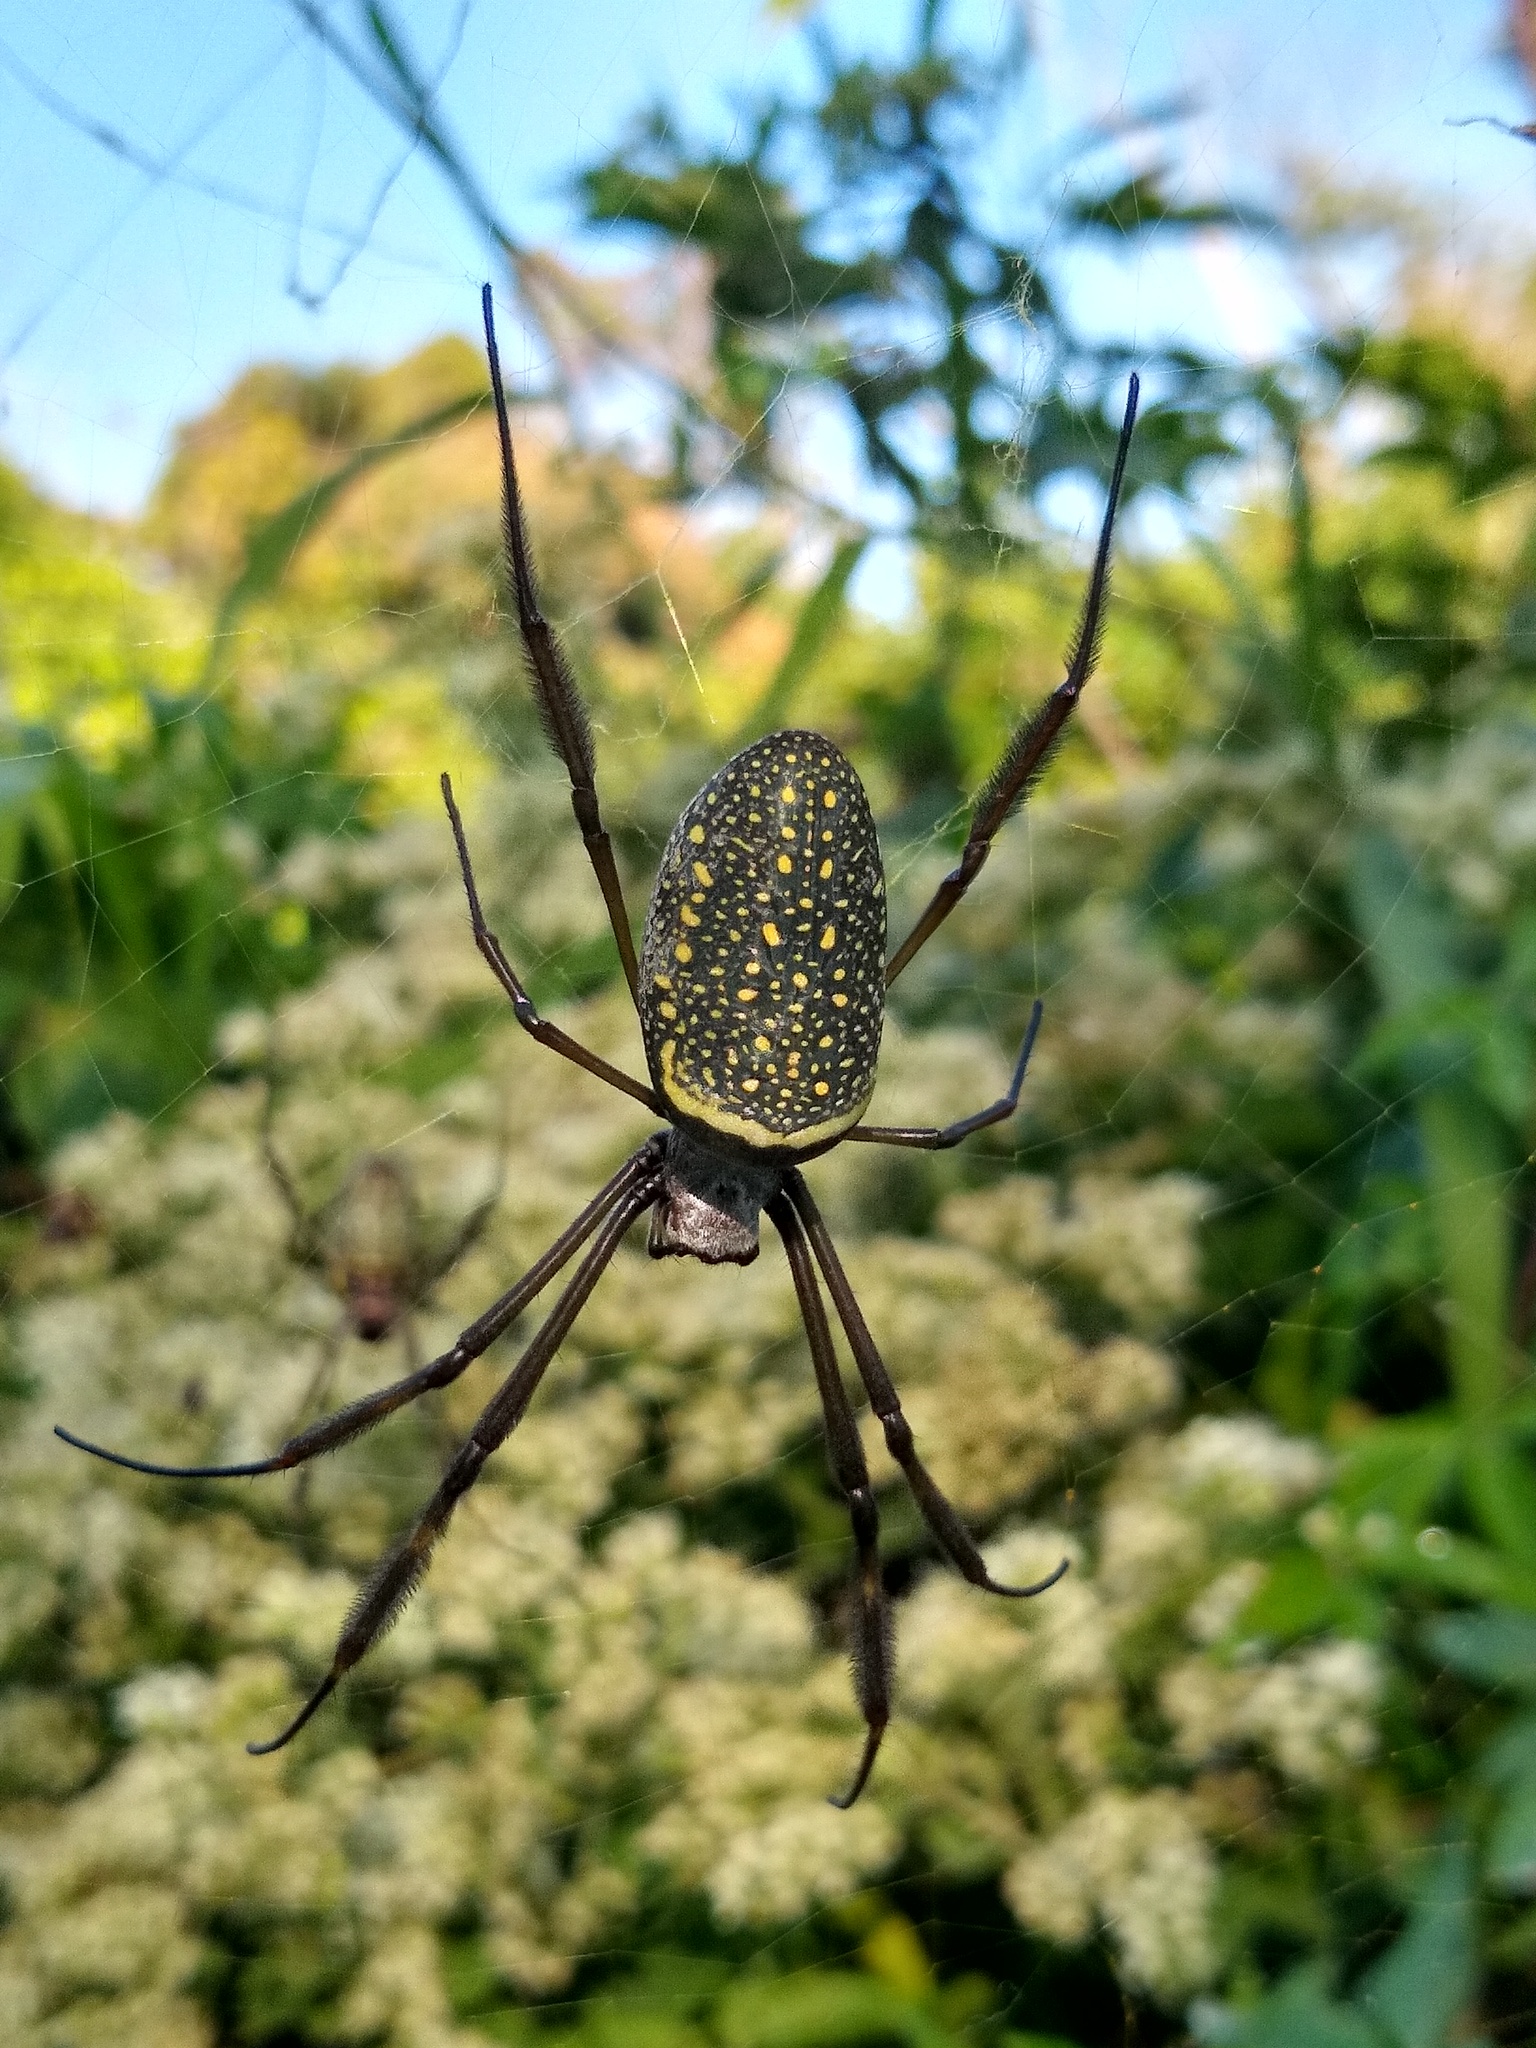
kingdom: Animalia
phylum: Arthropoda
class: Arachnida
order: Araneae
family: Araneidae
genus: Trichonephila
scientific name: Trichonephila clavipes
